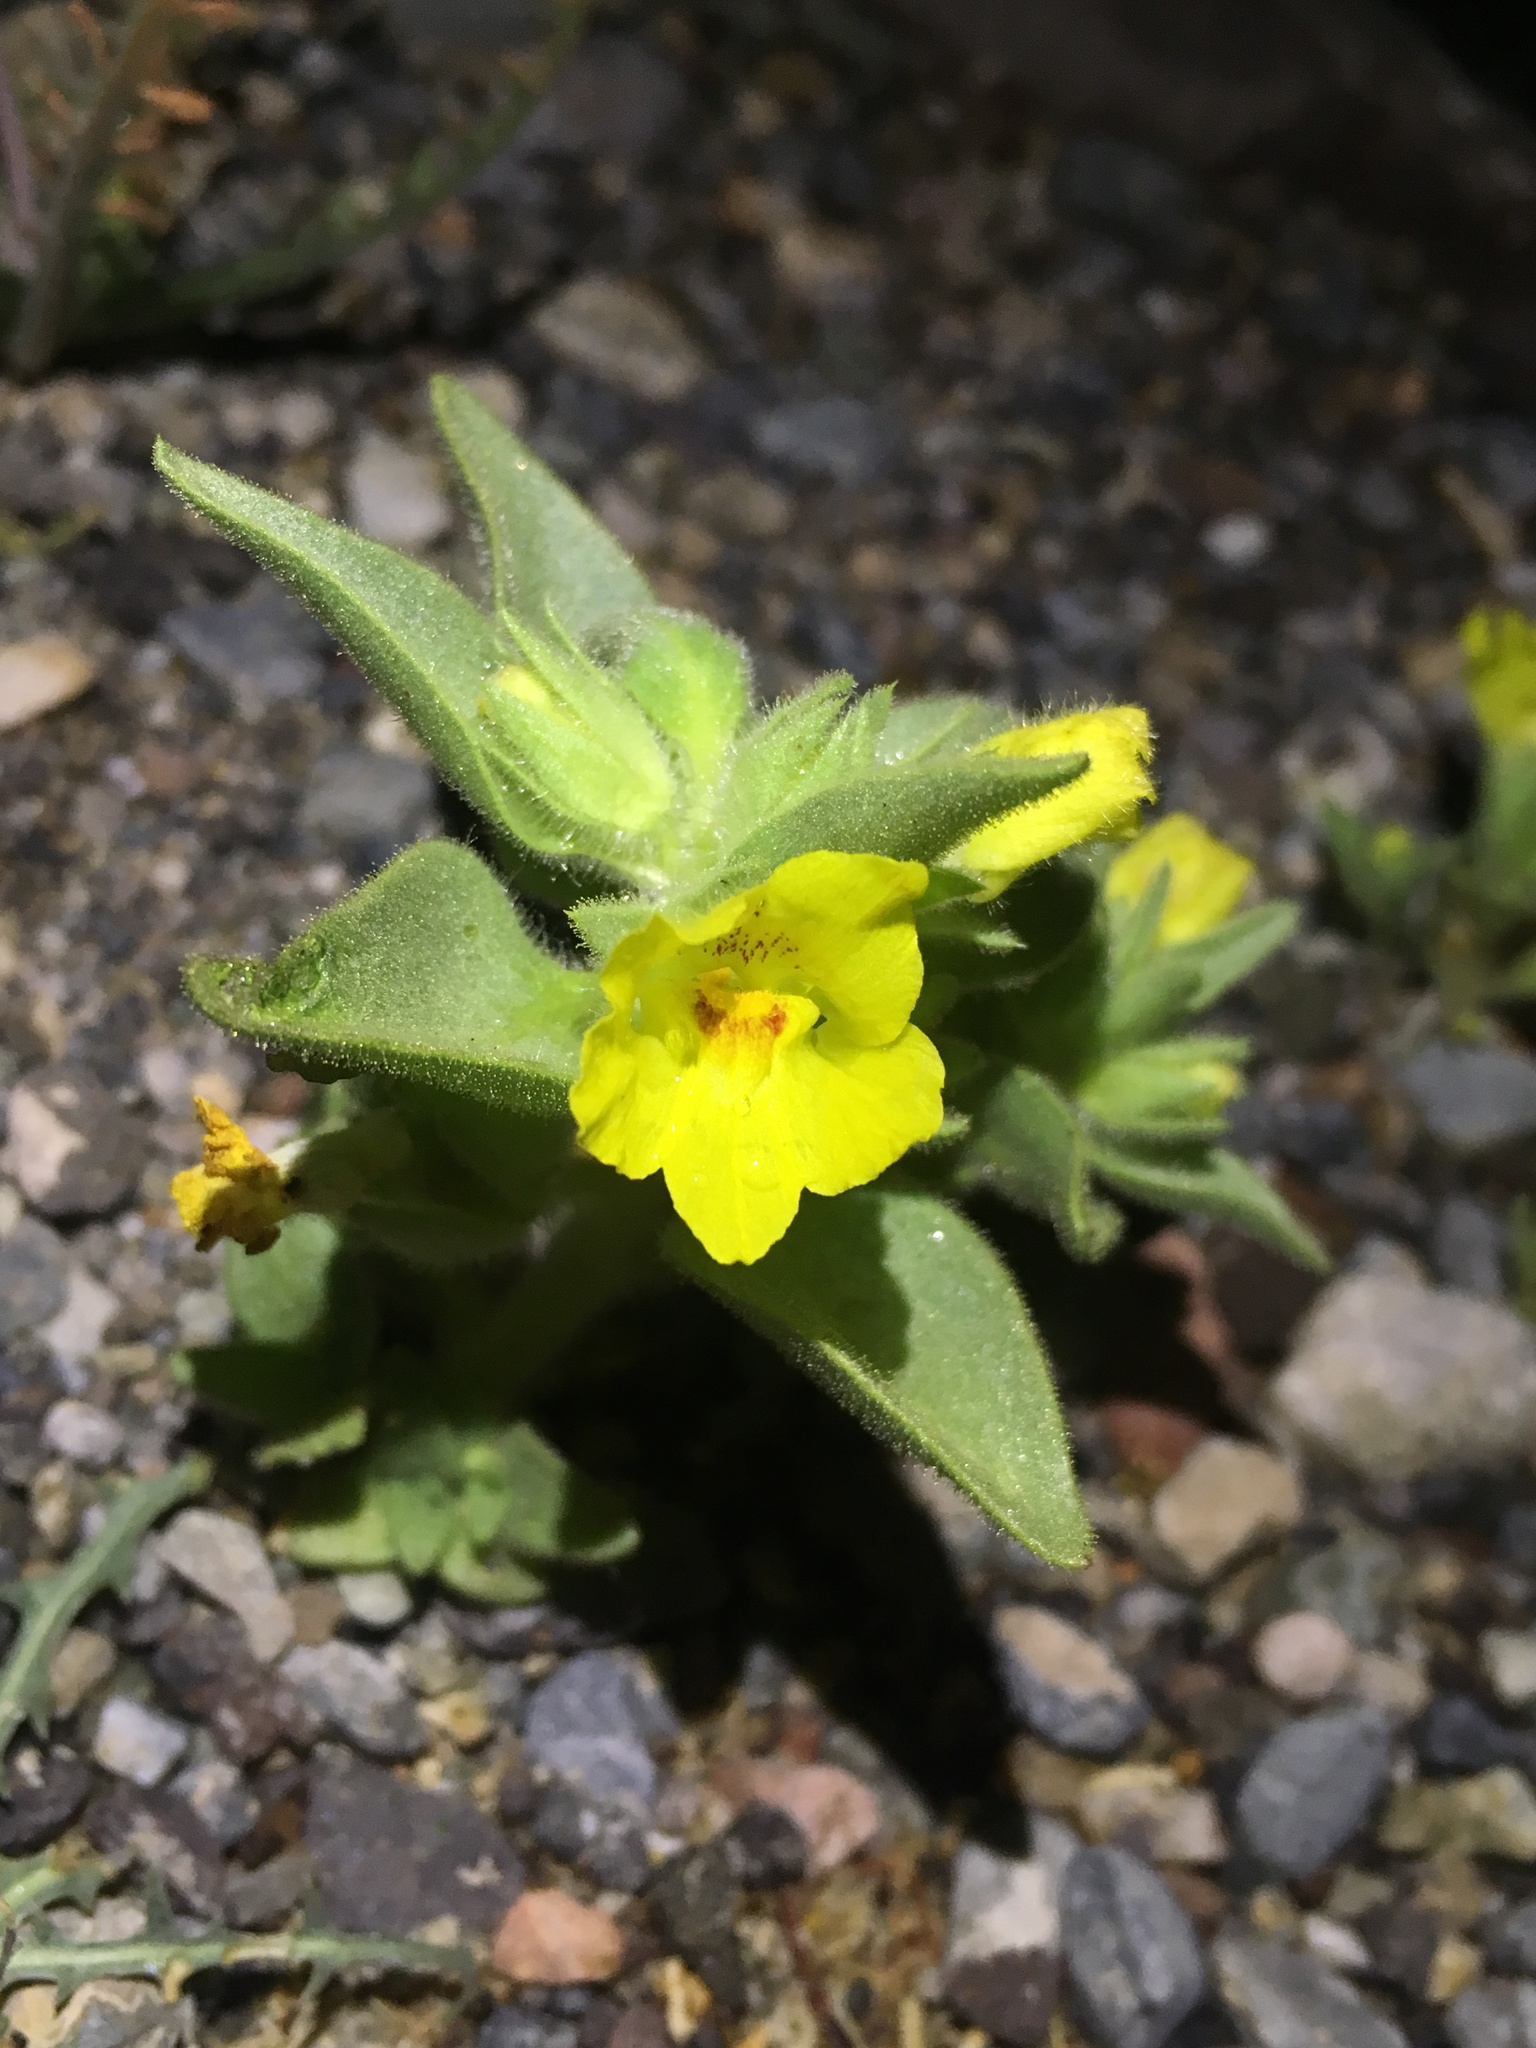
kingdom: Plantae
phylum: Tracheophyta
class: Magnoliopsida
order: Lamiales
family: Plantaginaceae
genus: Mohavea
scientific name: Mohavea breviflora
